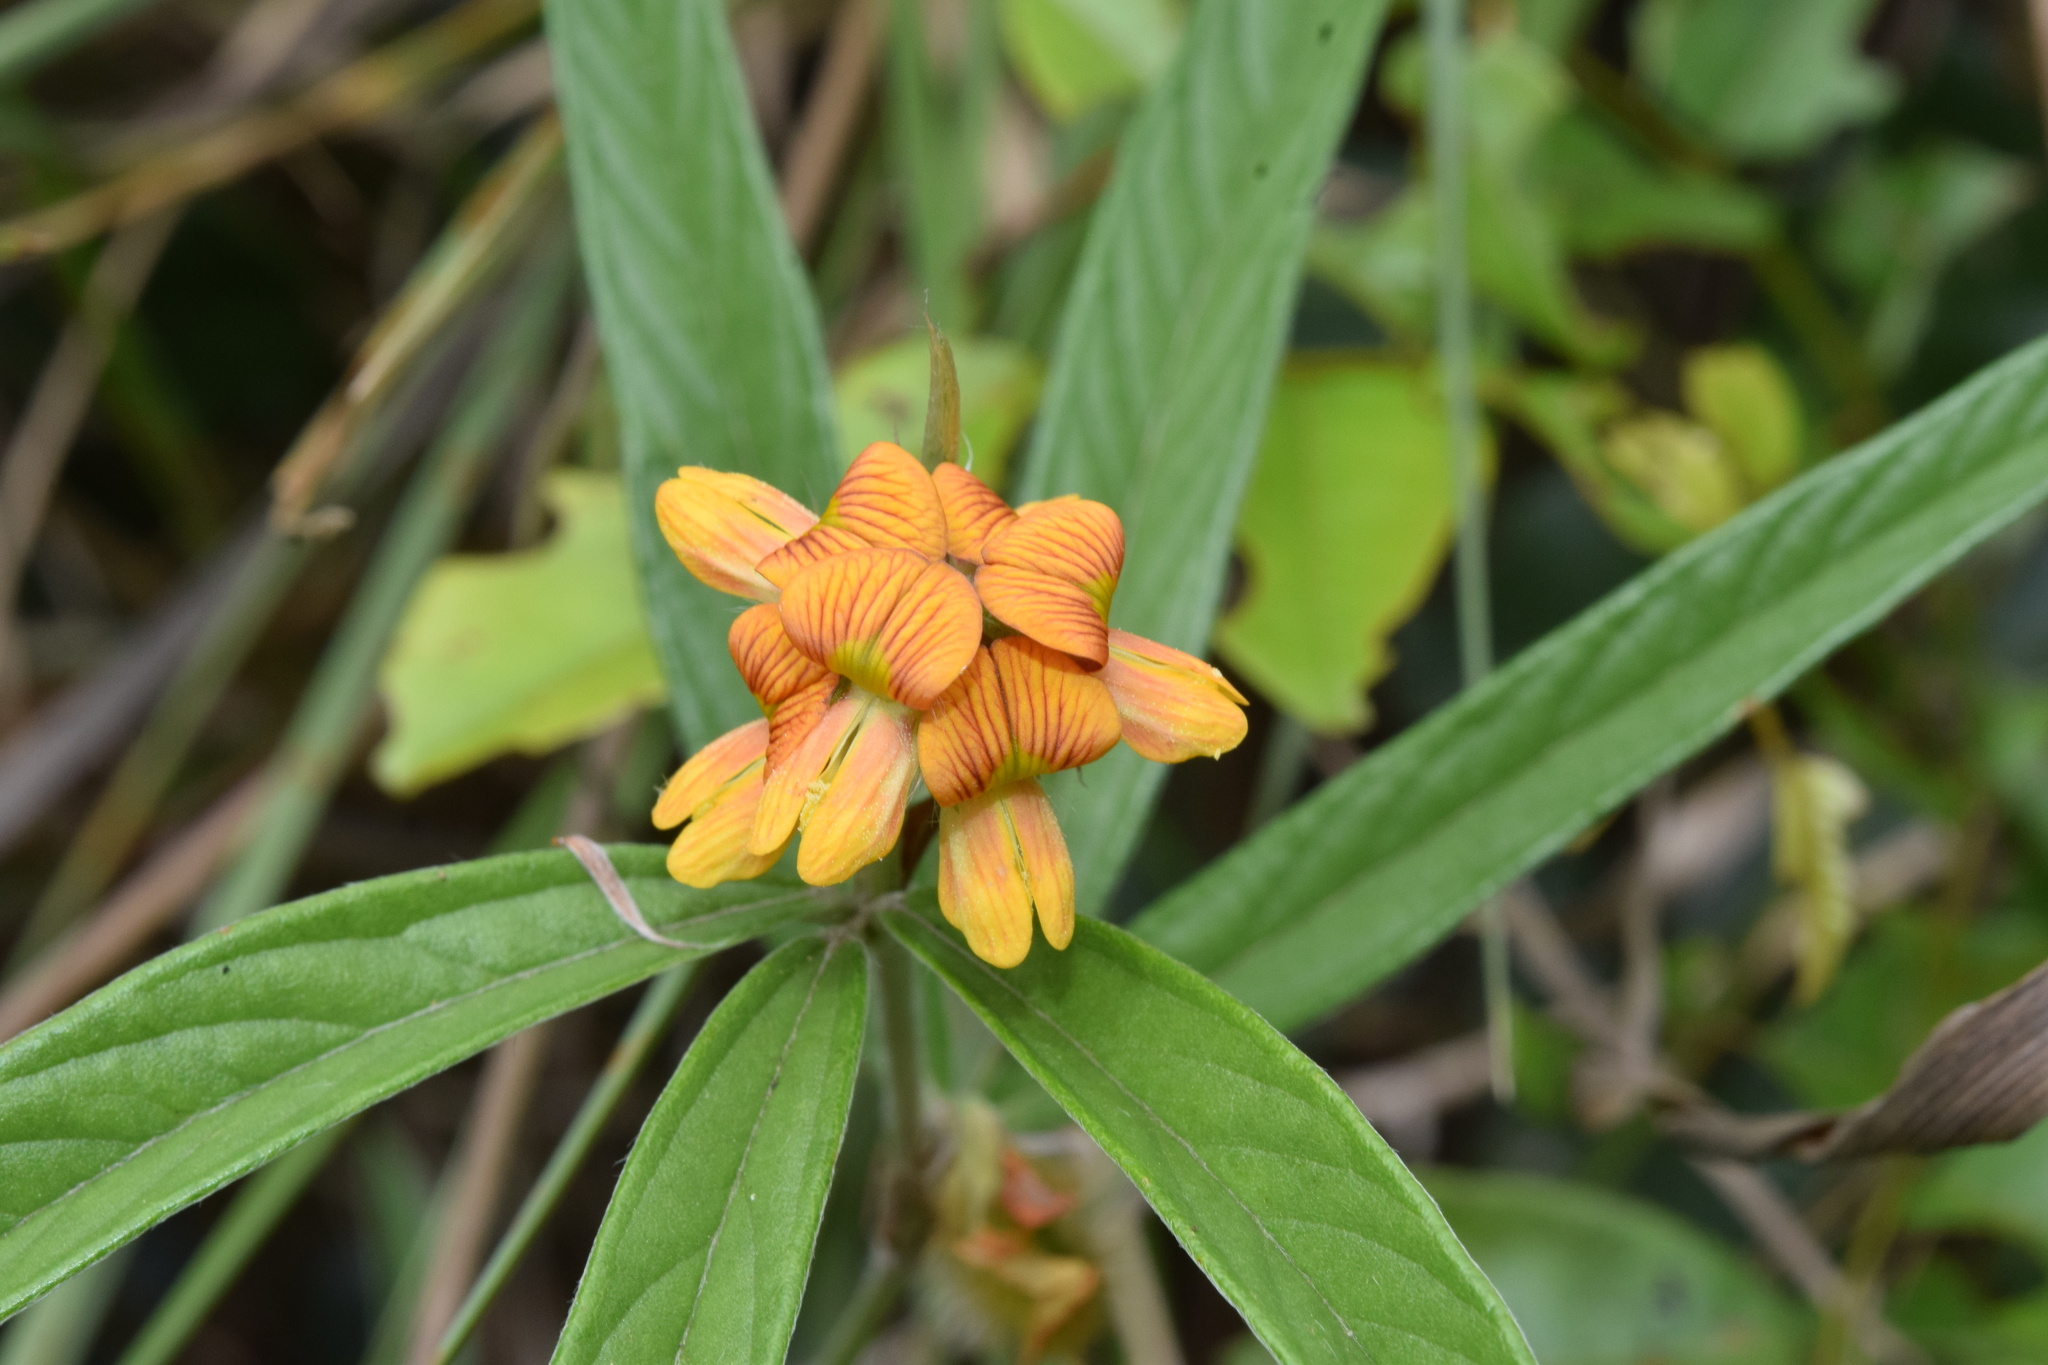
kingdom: Plantae
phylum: Tracheophyta
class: Magnoliopsida
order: Fabales
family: Fabaceae
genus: Eriosema
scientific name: Eriosema salignum
